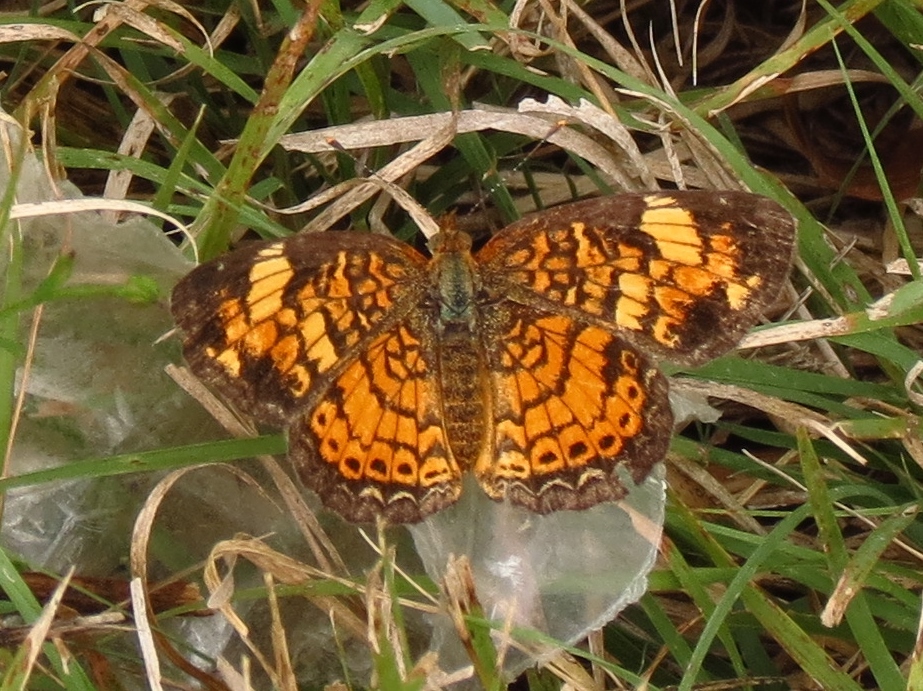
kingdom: Animalia
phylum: Arthropoda
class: Insecta
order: Lepidoptera
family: Nymphalidae
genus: Phyciodes
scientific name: Phyciodes tharos
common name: Pearl crescent
